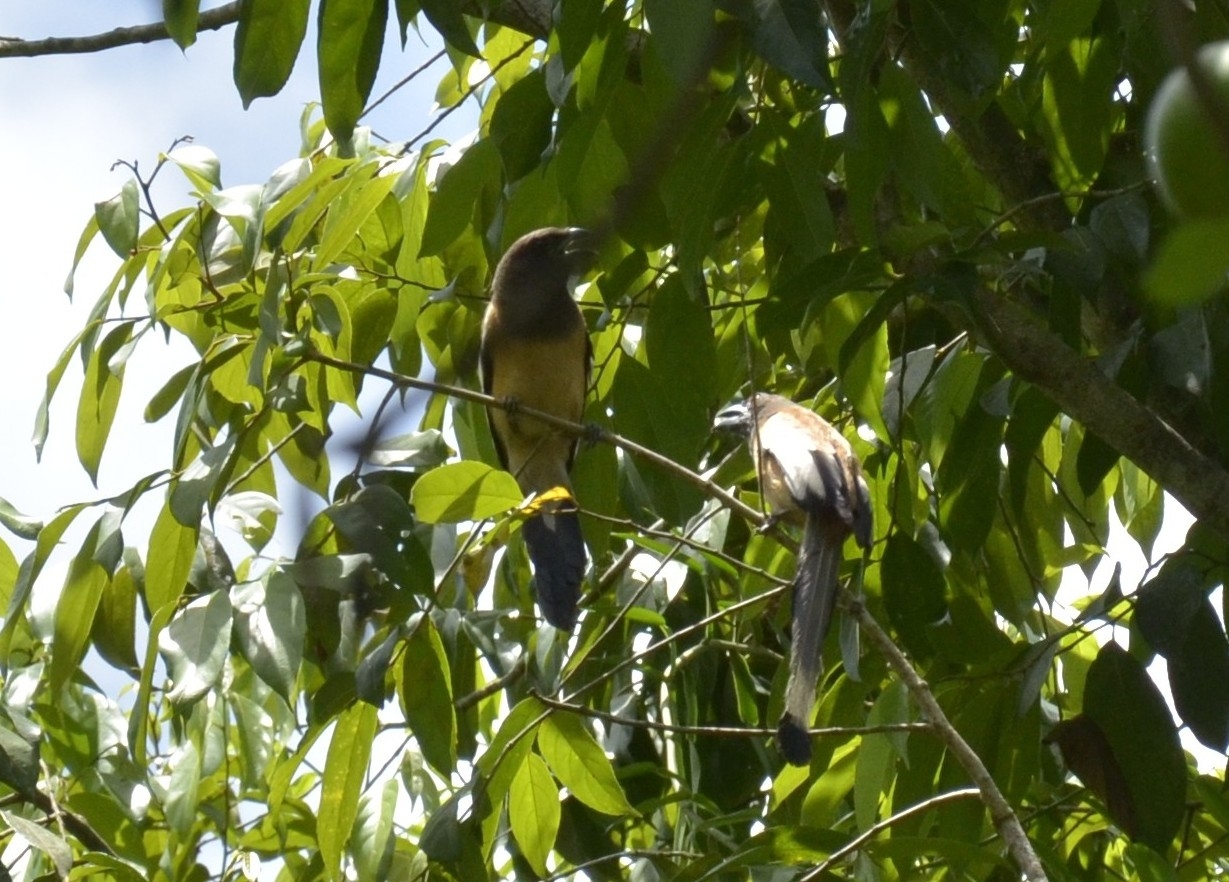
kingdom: Animalia
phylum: Chordata
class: Aves
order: Passeriformes
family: Corvidae
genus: Dendrocitta
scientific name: Dendrocitta vagabunda
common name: Rufous treepie
